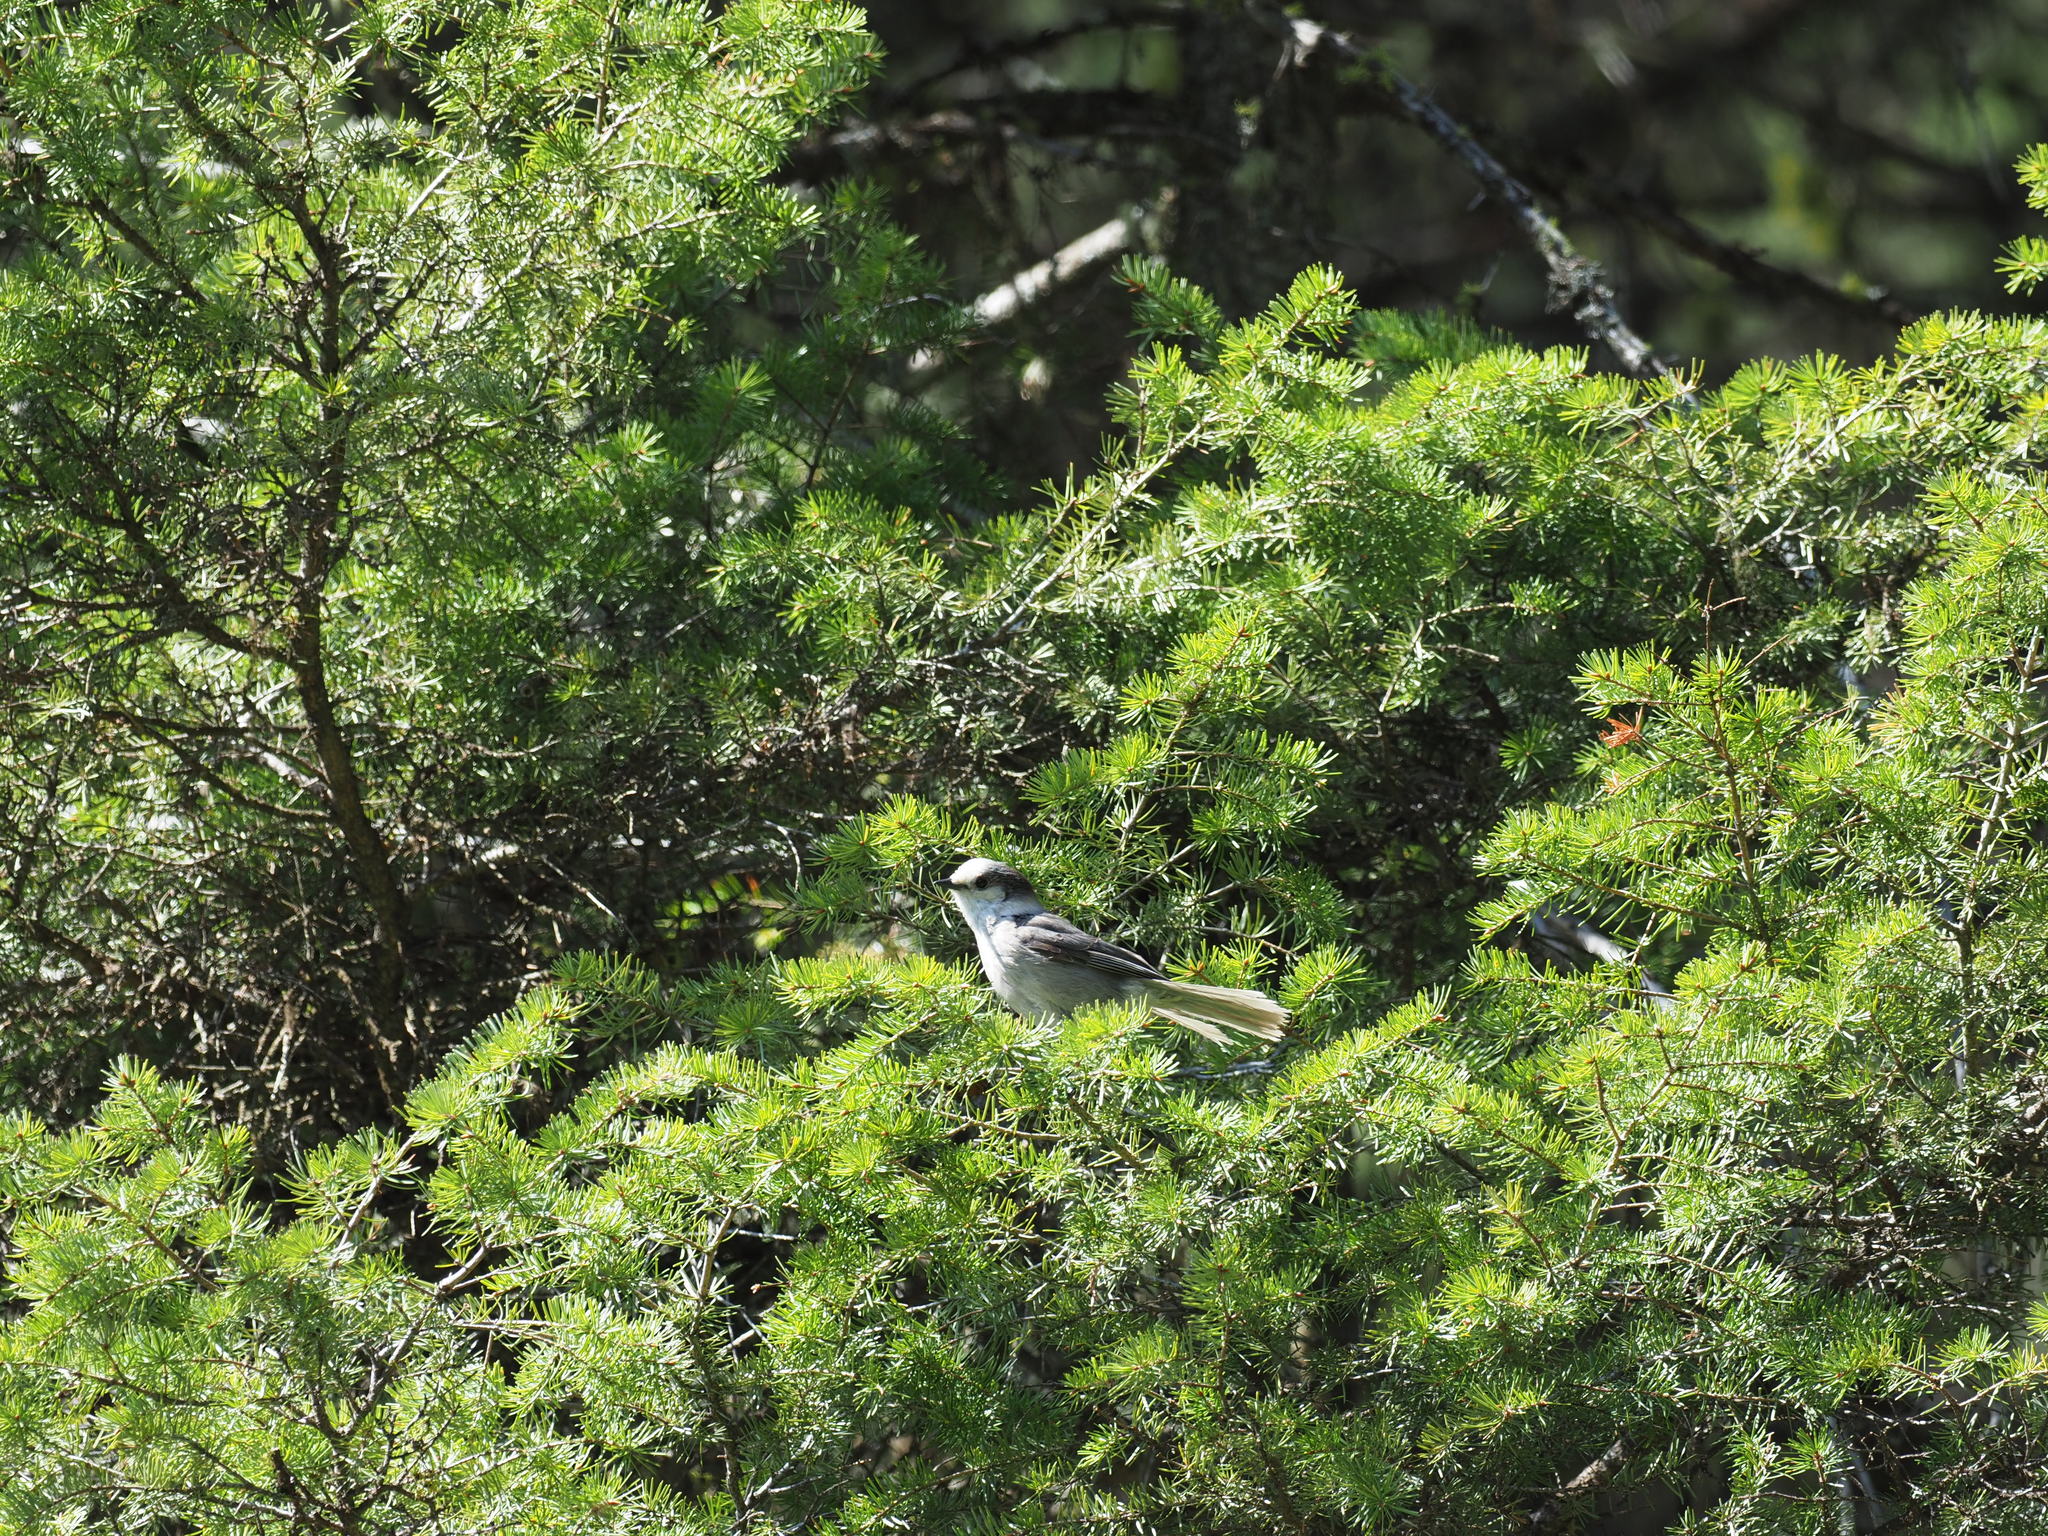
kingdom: Animalia
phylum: Chordata
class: Aves
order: Passeriformes
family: Corvidae
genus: Perisoreus
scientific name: Perisoreus canadensis
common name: Gray jay
